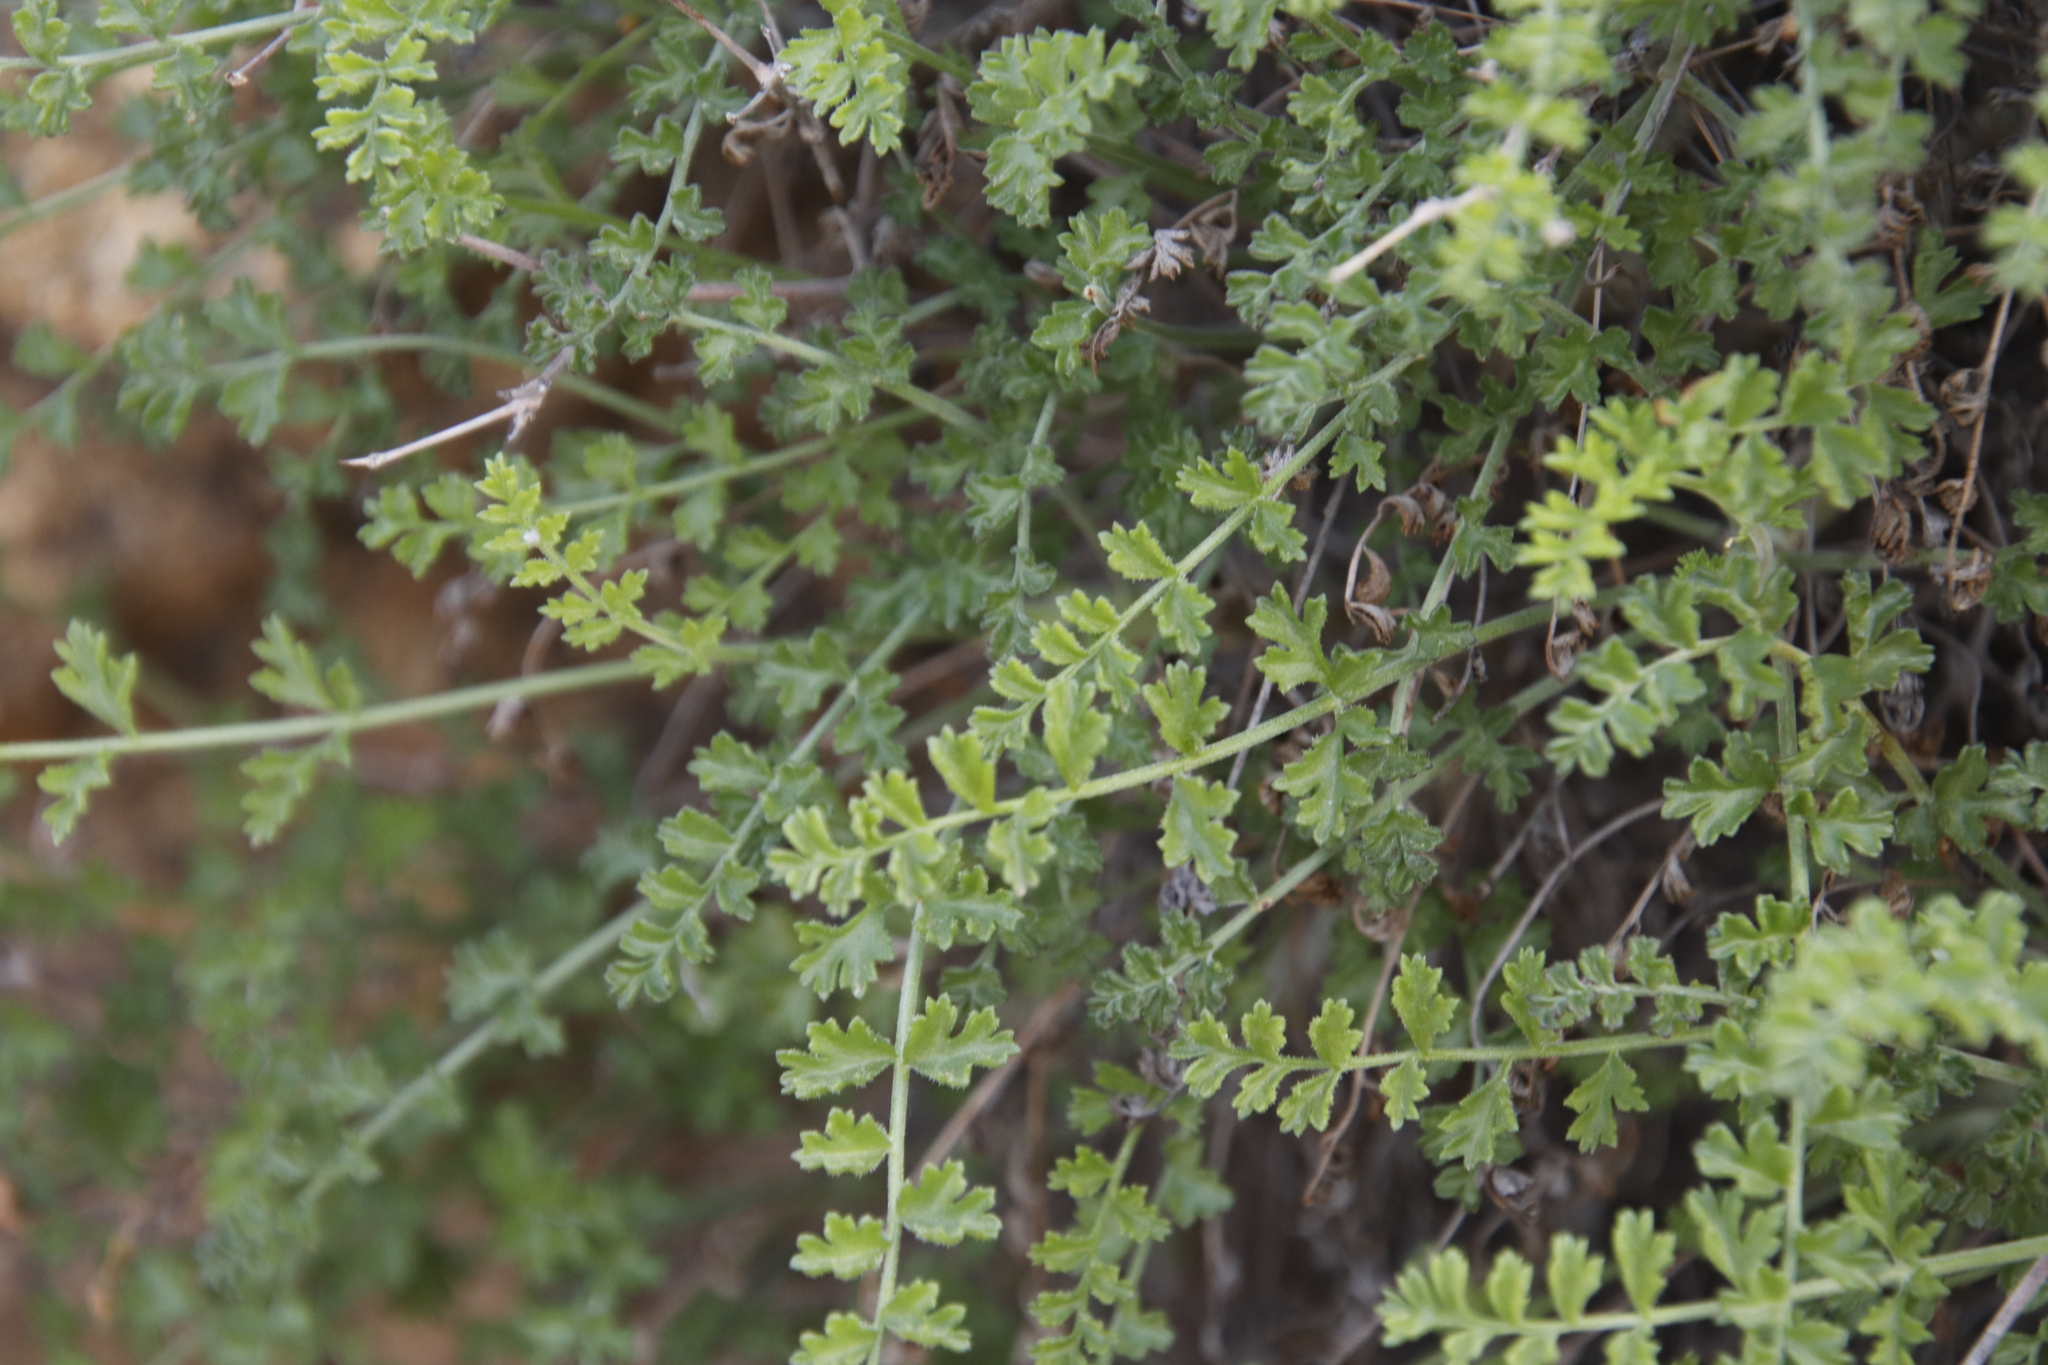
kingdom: Plantae
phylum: Tracheophyta
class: Magnoliopsida
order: Geraniales
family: Geraniaceae
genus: Pelargonium
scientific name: Pelargonium dasyphyllum
